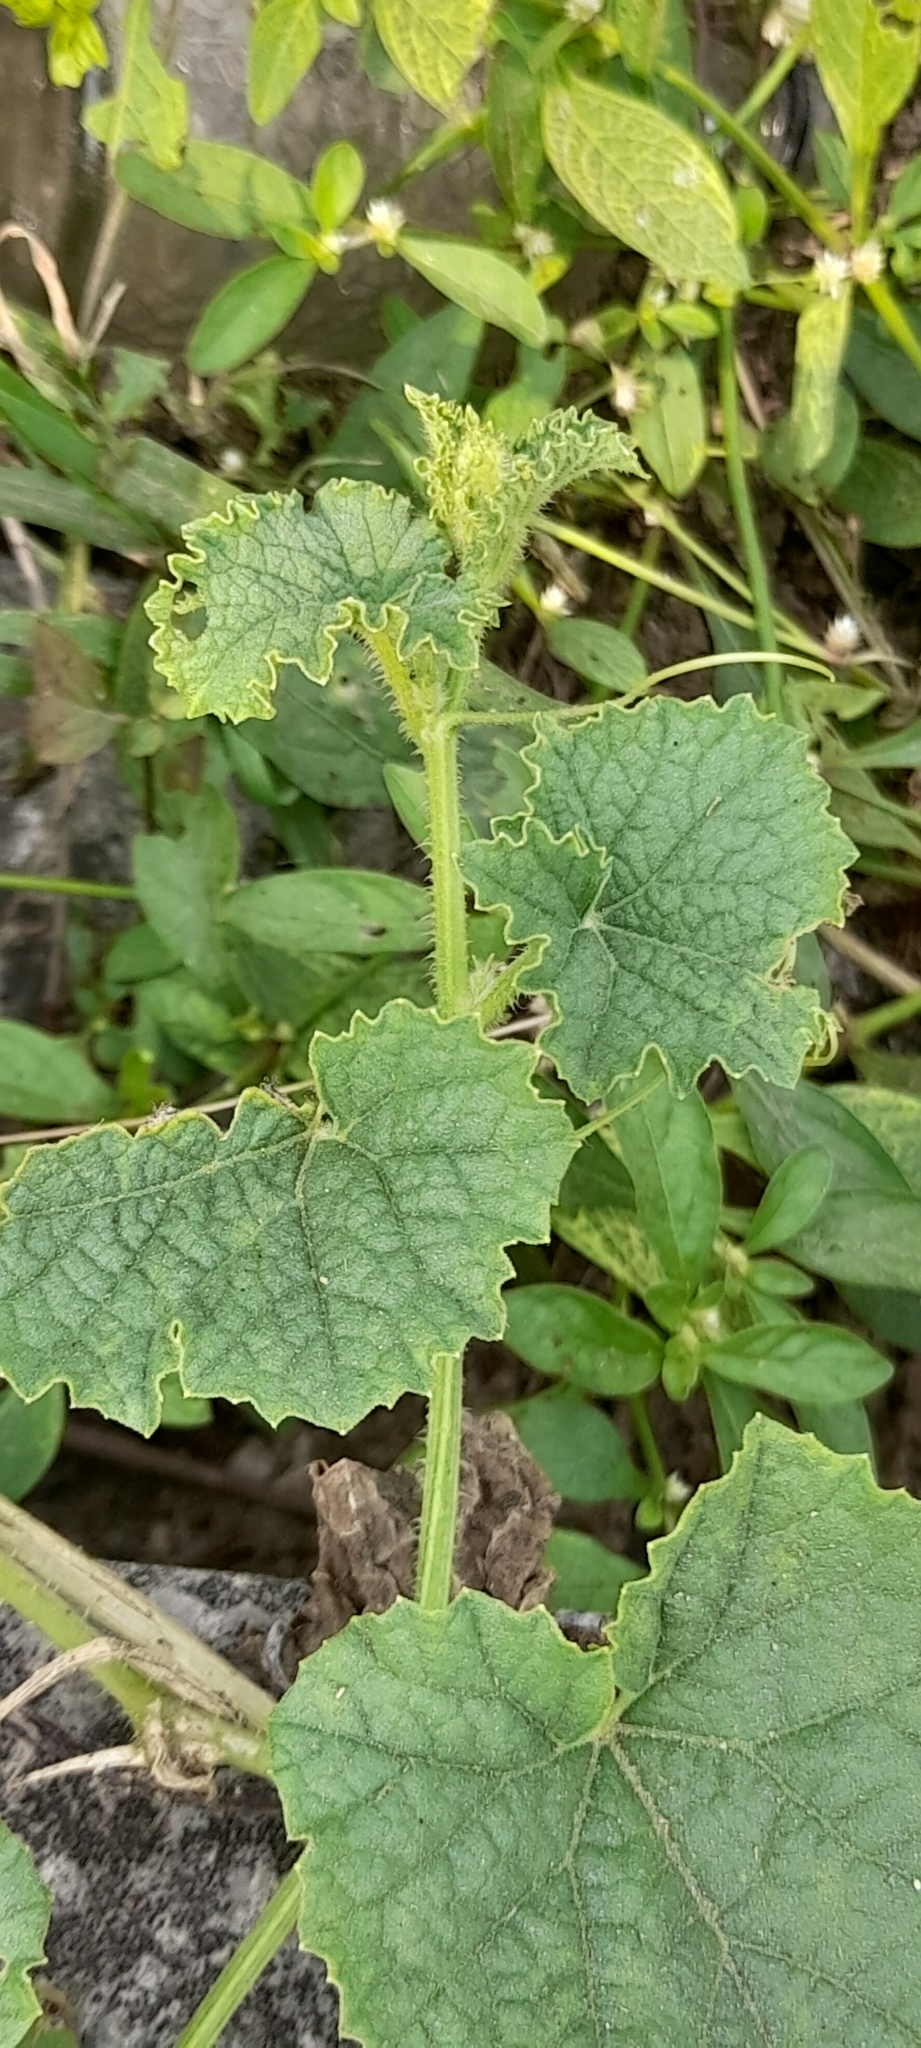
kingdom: Plantae
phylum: Tracheophyta
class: Magnoliopsida
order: Cucurbitales
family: Cucurbitaceae
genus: Cucumis
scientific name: Cucumis melo
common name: Melon
